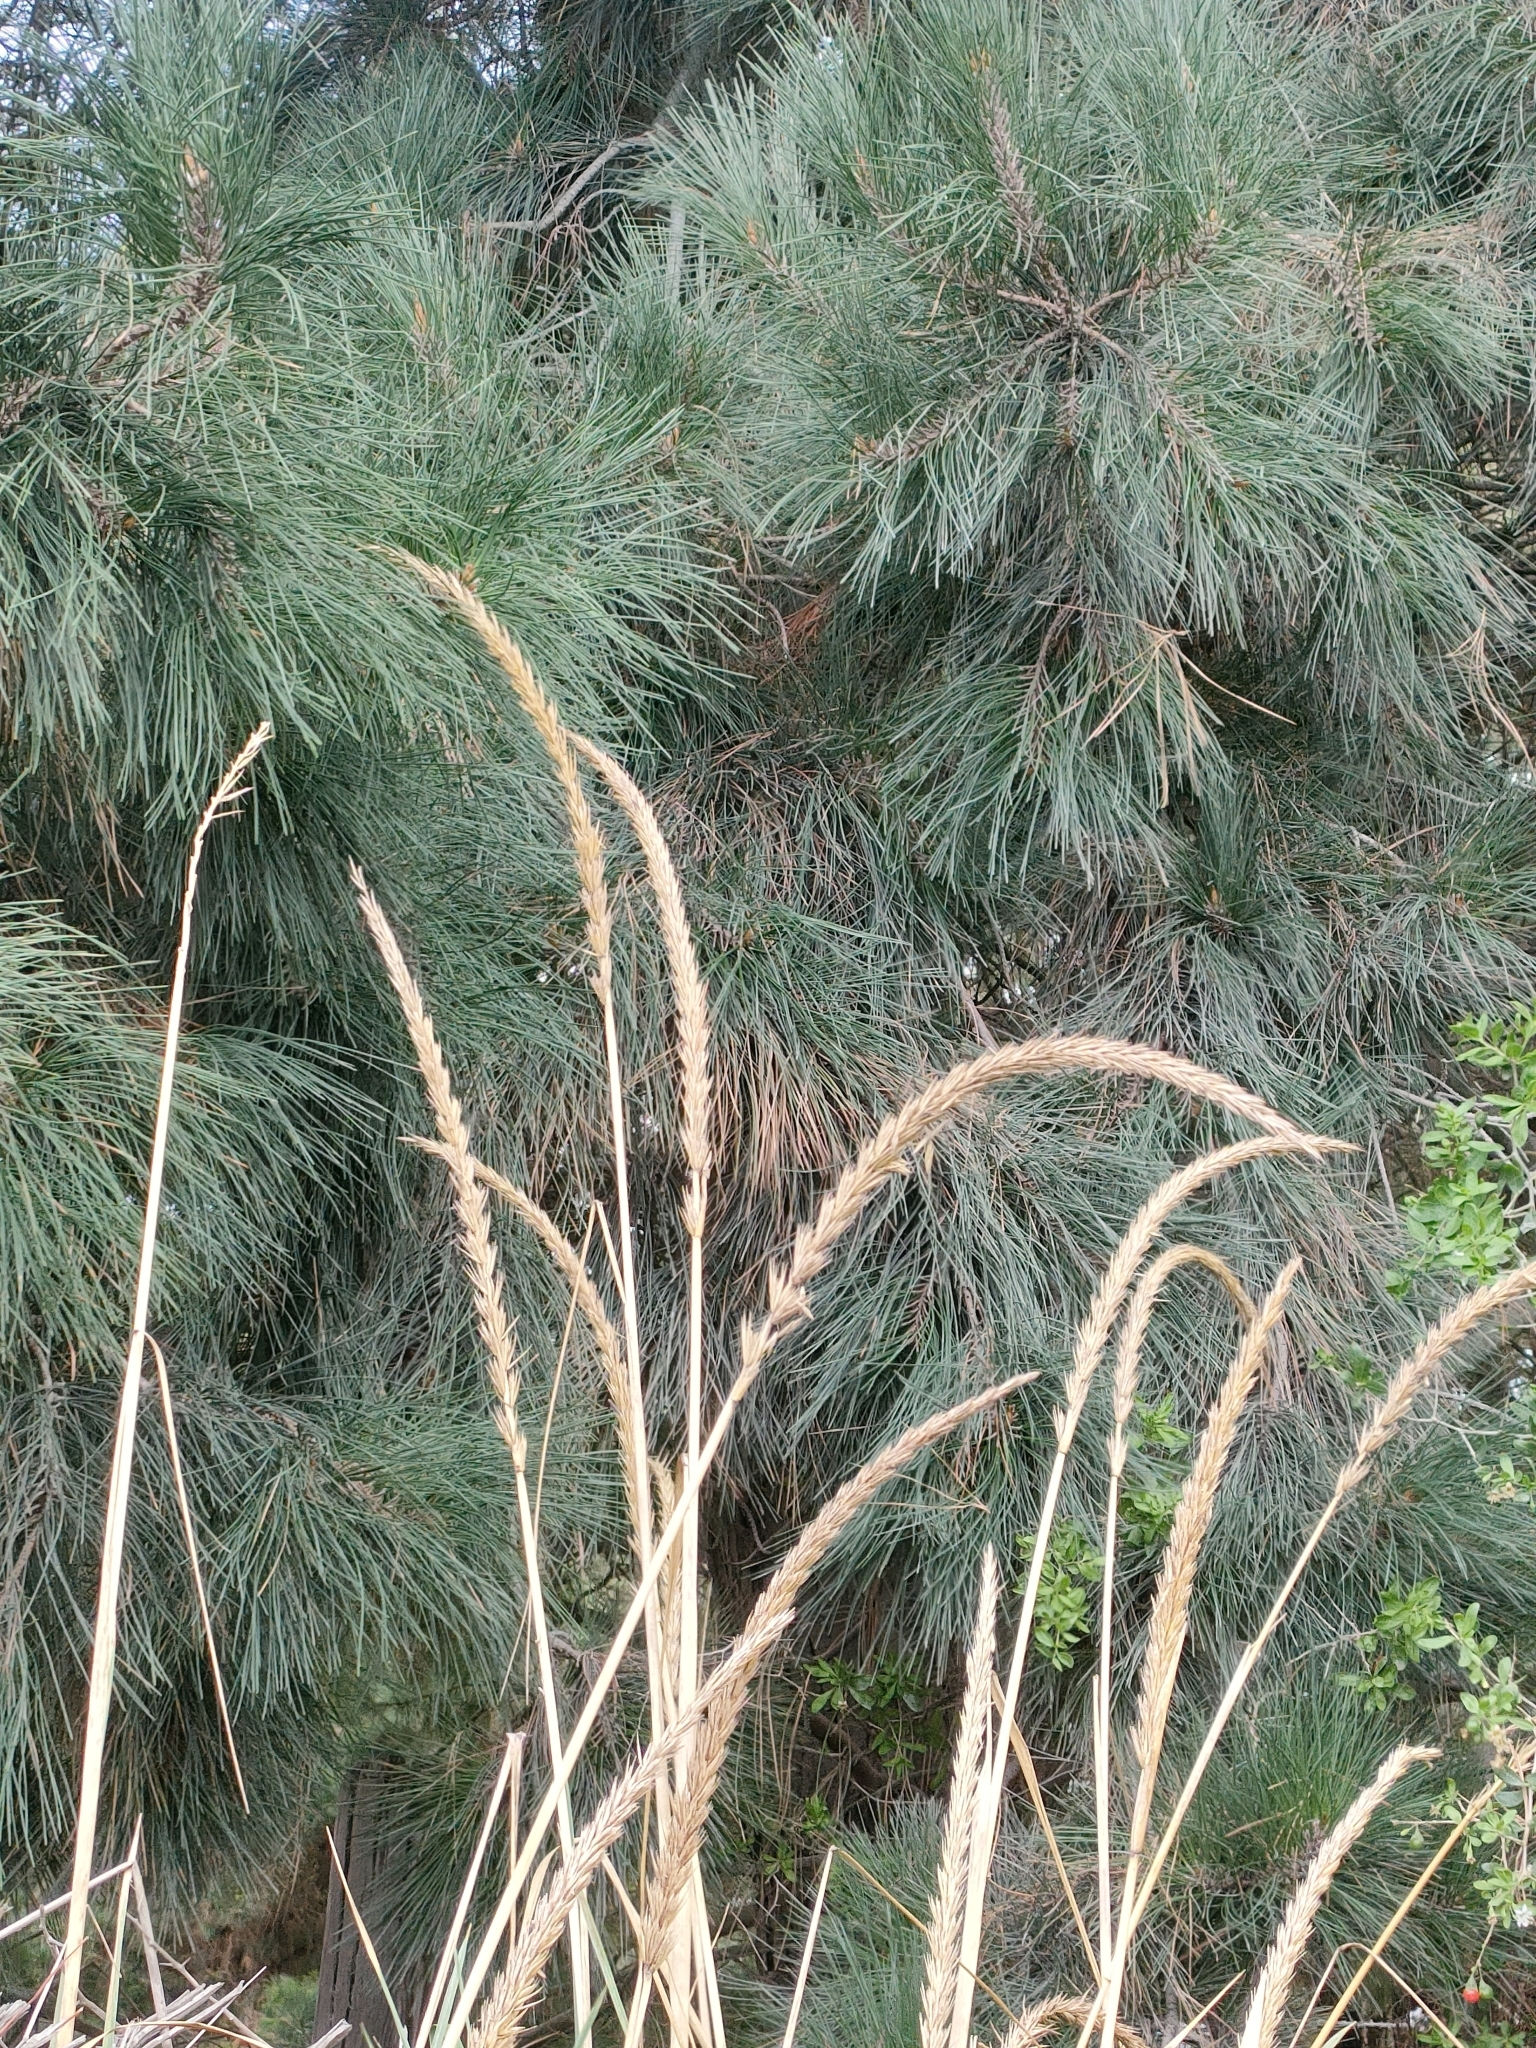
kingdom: Plantae
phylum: Tracheophyta
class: Liliopsida
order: Poales
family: Poaceae
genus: Leymus
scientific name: Leymus racemosus
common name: Mammoth wildrye
